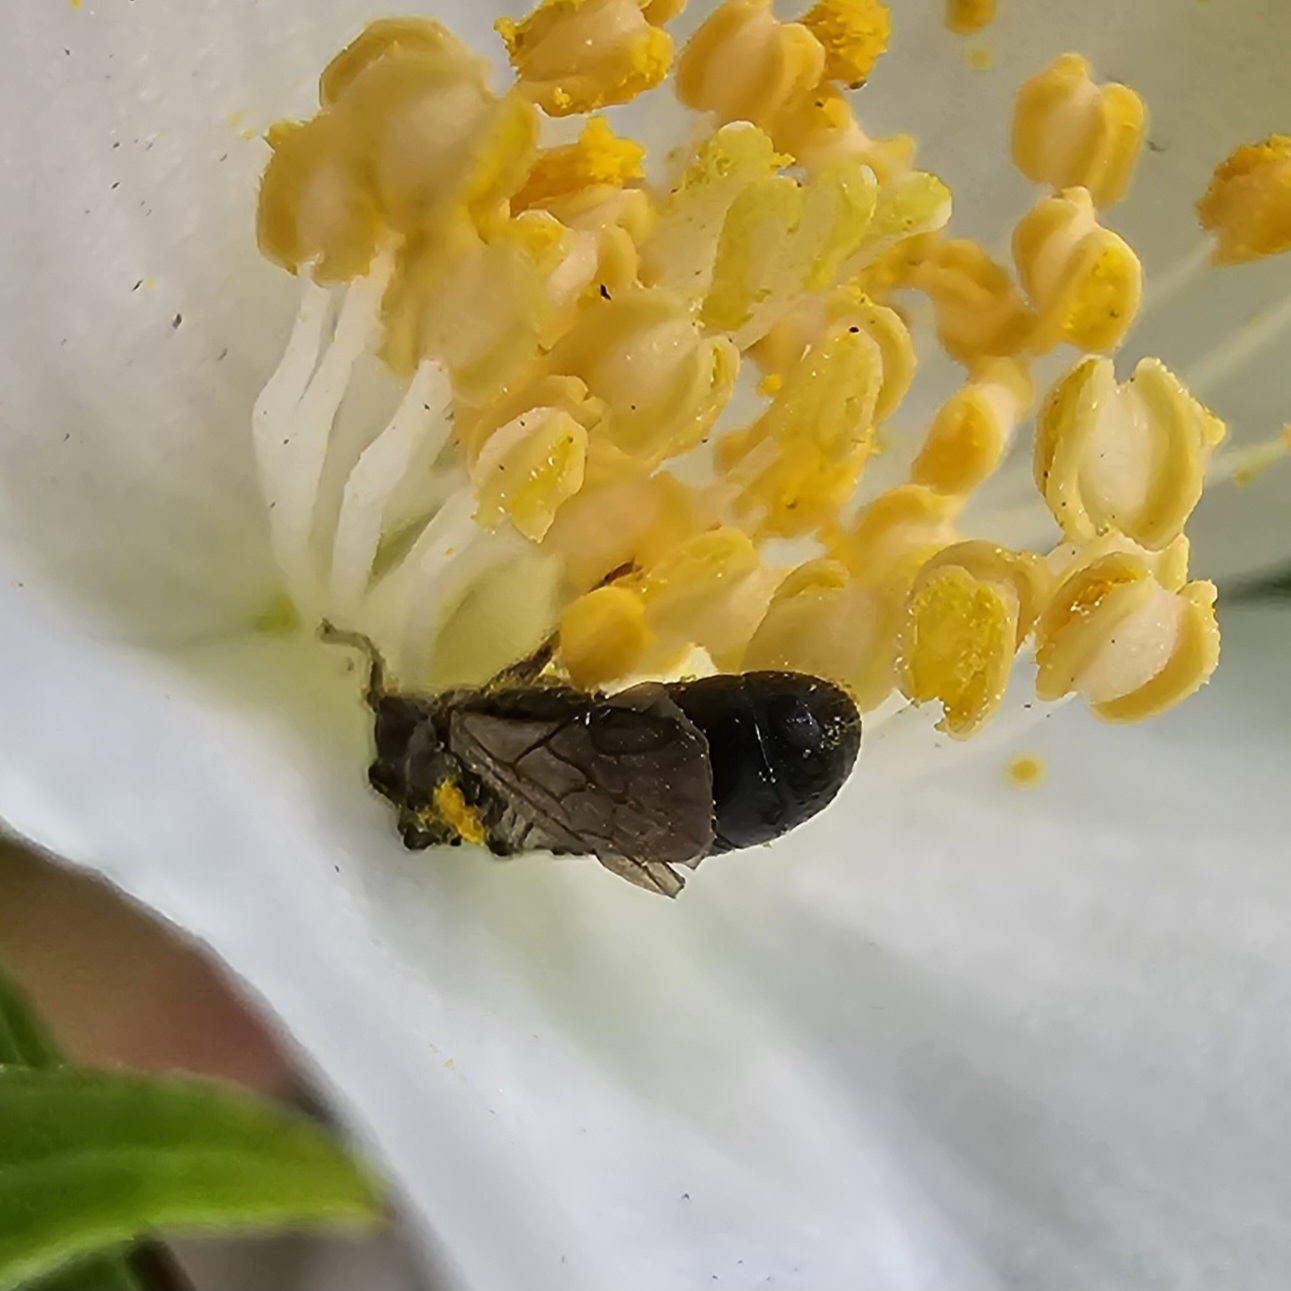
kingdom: Animalia
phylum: Arthropoda
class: Insecta
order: Hymenoptera
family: Megachilidae
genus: Chelostoma
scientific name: Chelostoma philadelphi
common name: Mock-orange scissor bee
